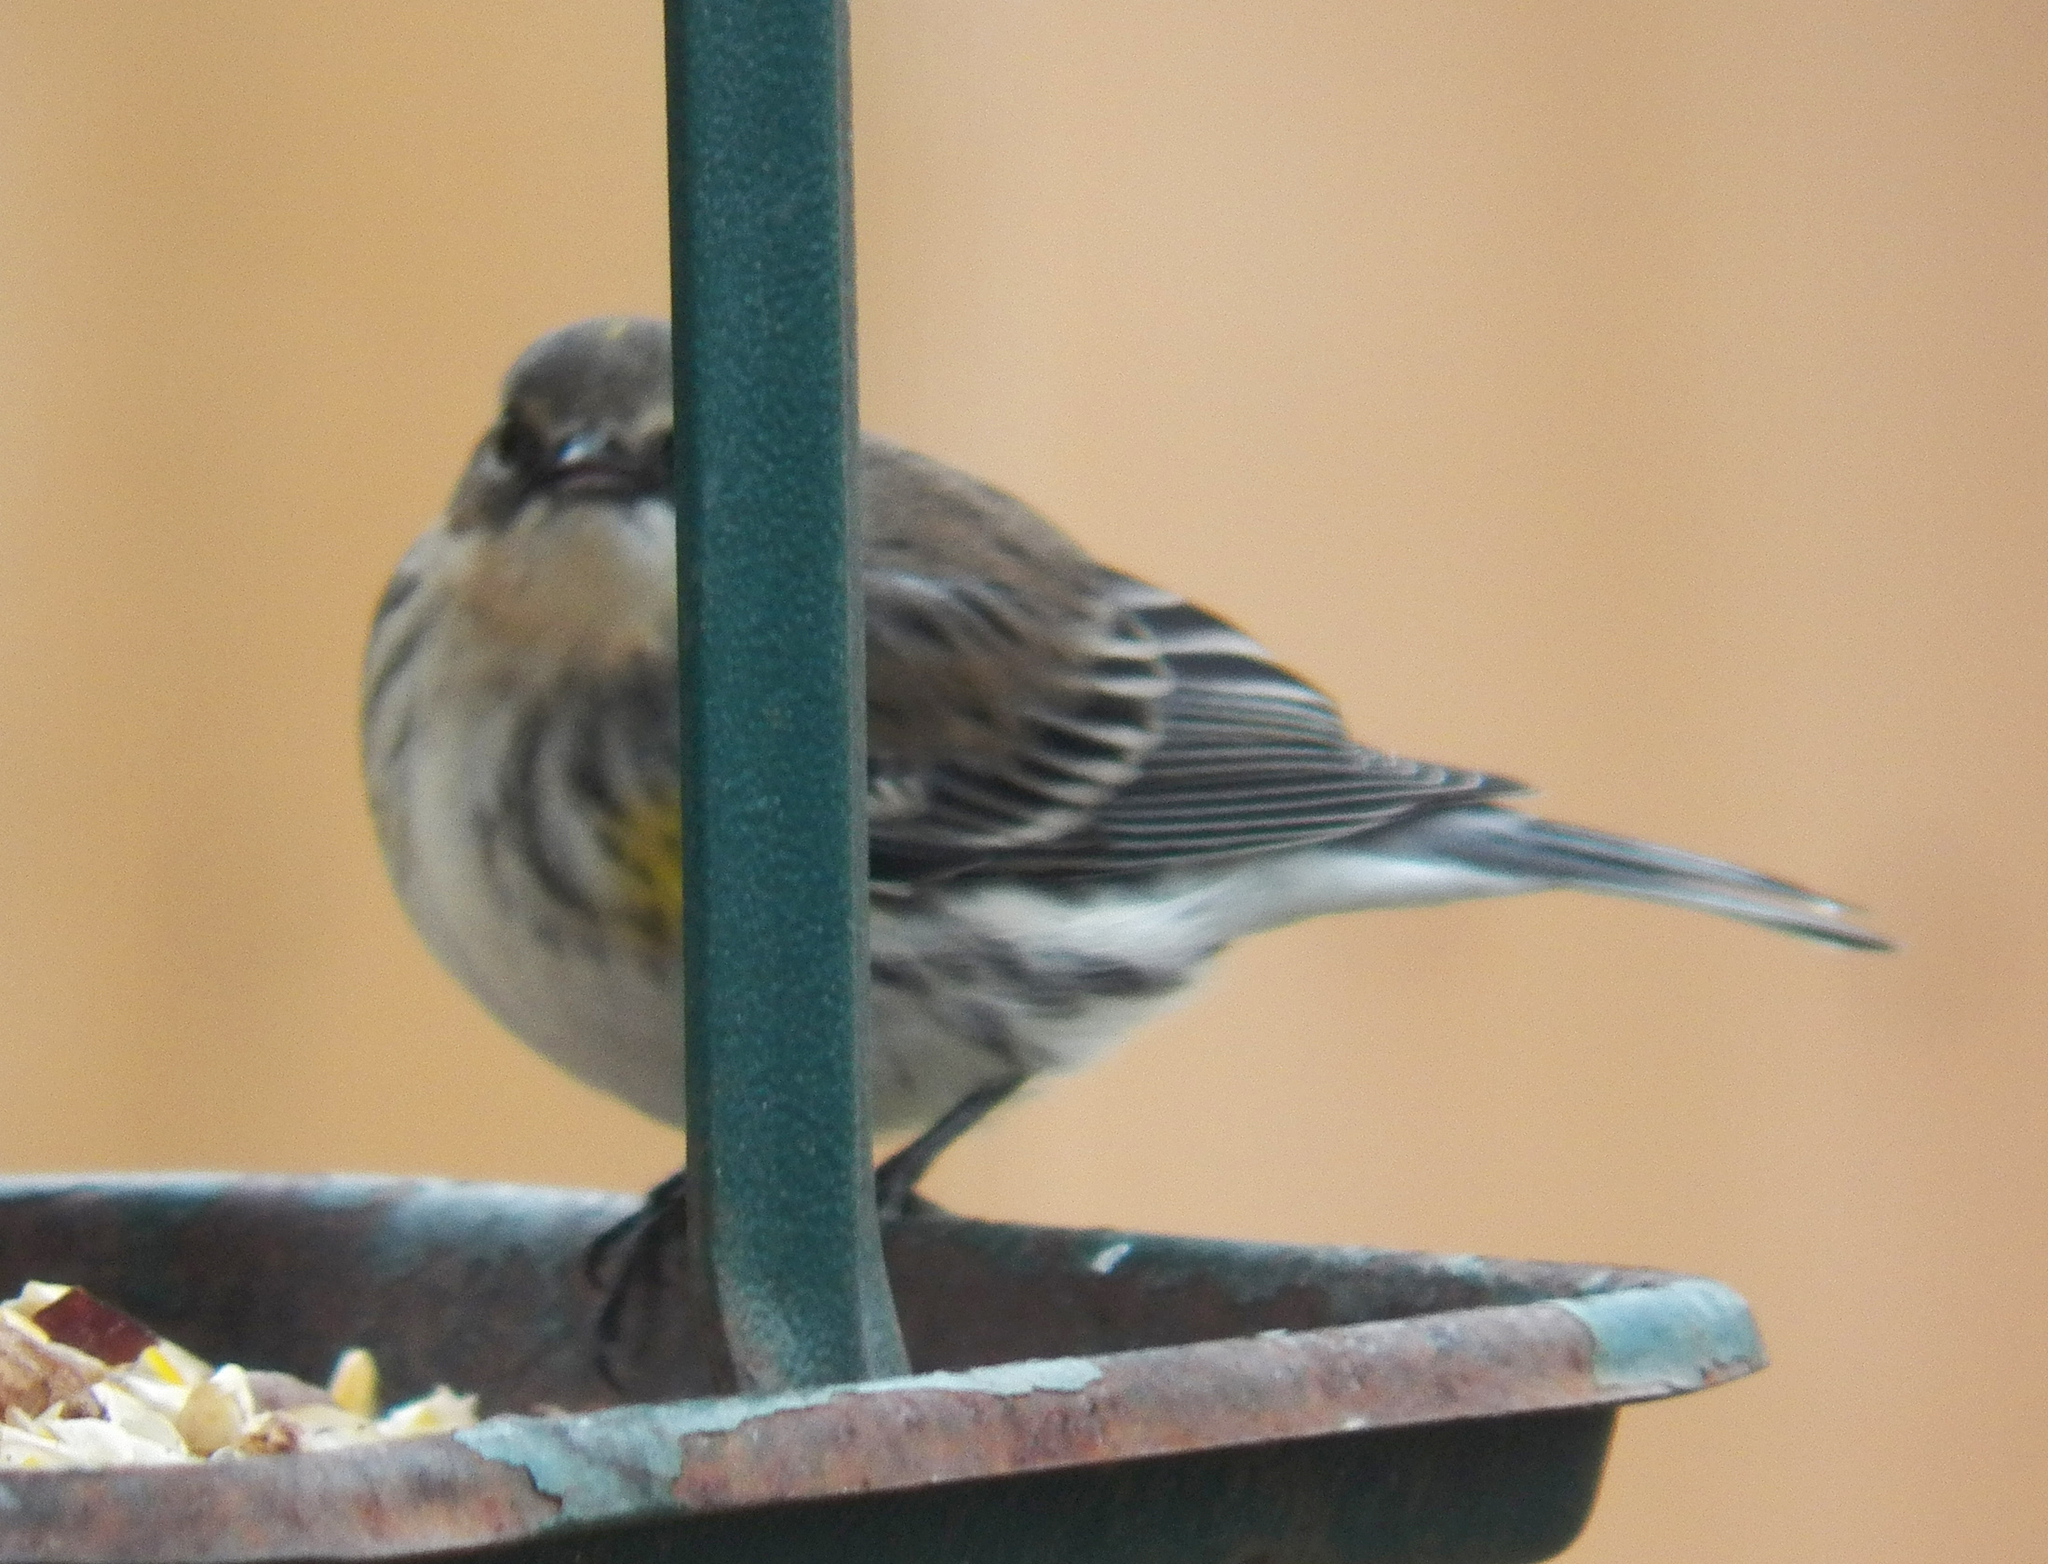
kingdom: Animalia
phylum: Chordata
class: Aves
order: Passeriformes
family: Parulidae
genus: Setophaga
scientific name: Setophaga coronata
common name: Myrtle warbler
